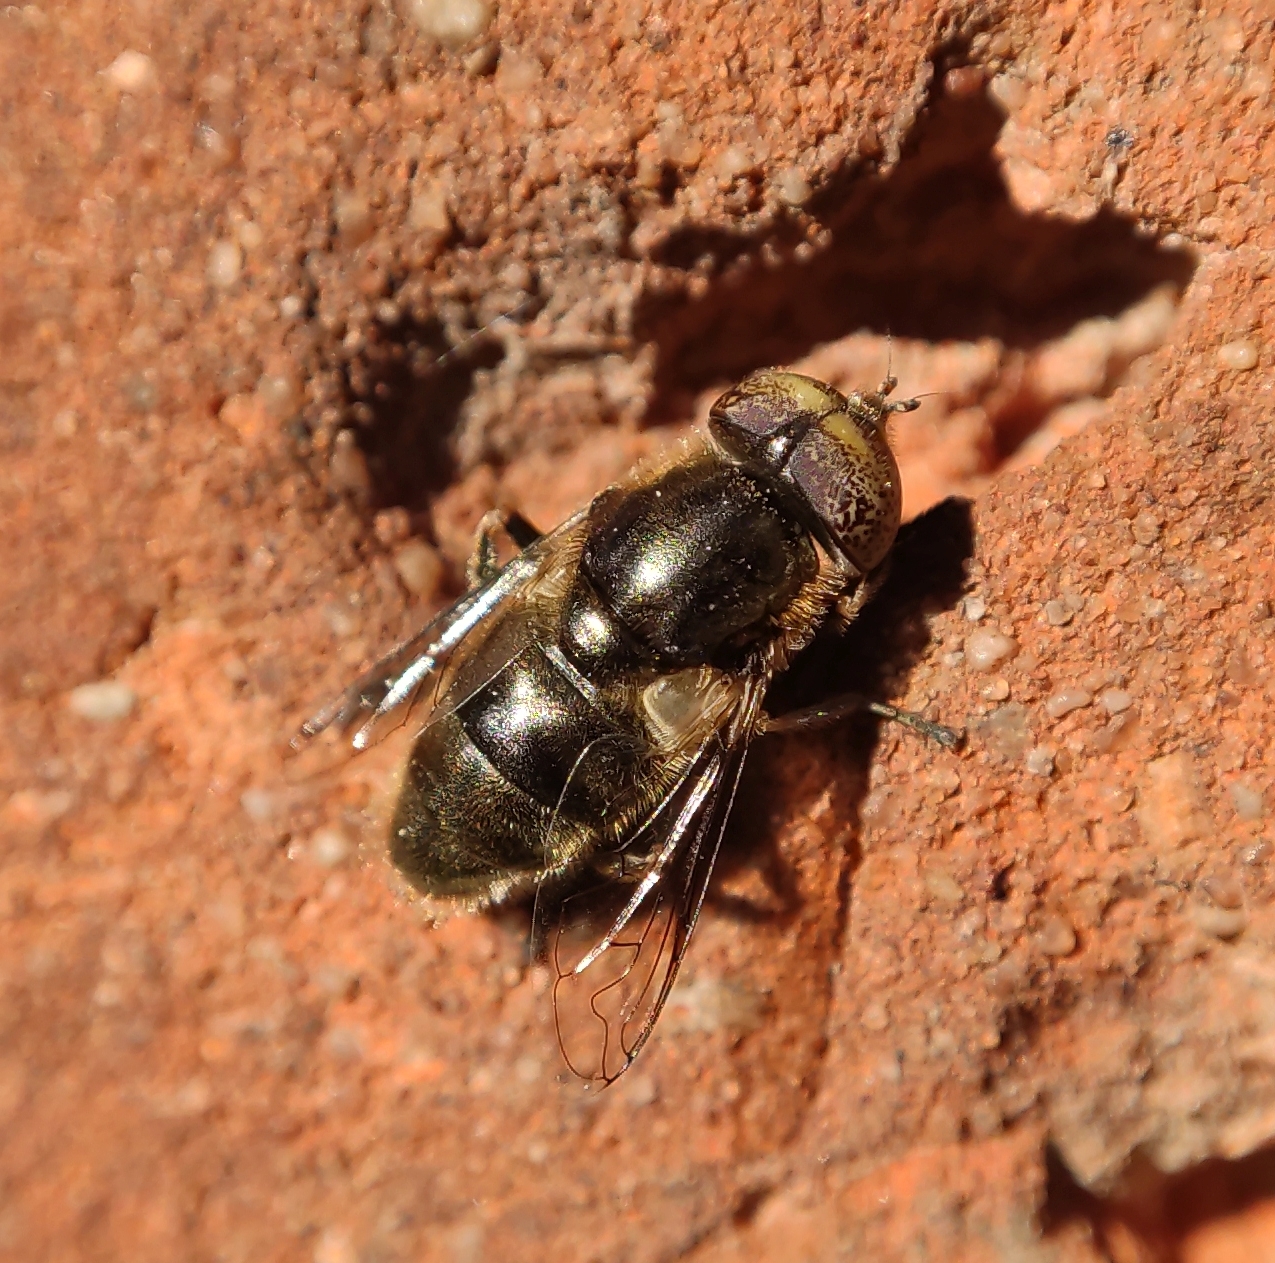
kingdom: Animalia
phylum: Arthropoda
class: Insecta
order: Diptera
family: Syrphidae
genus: Eristalinus
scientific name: Eristalinus aeneus
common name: Syrphid fly
